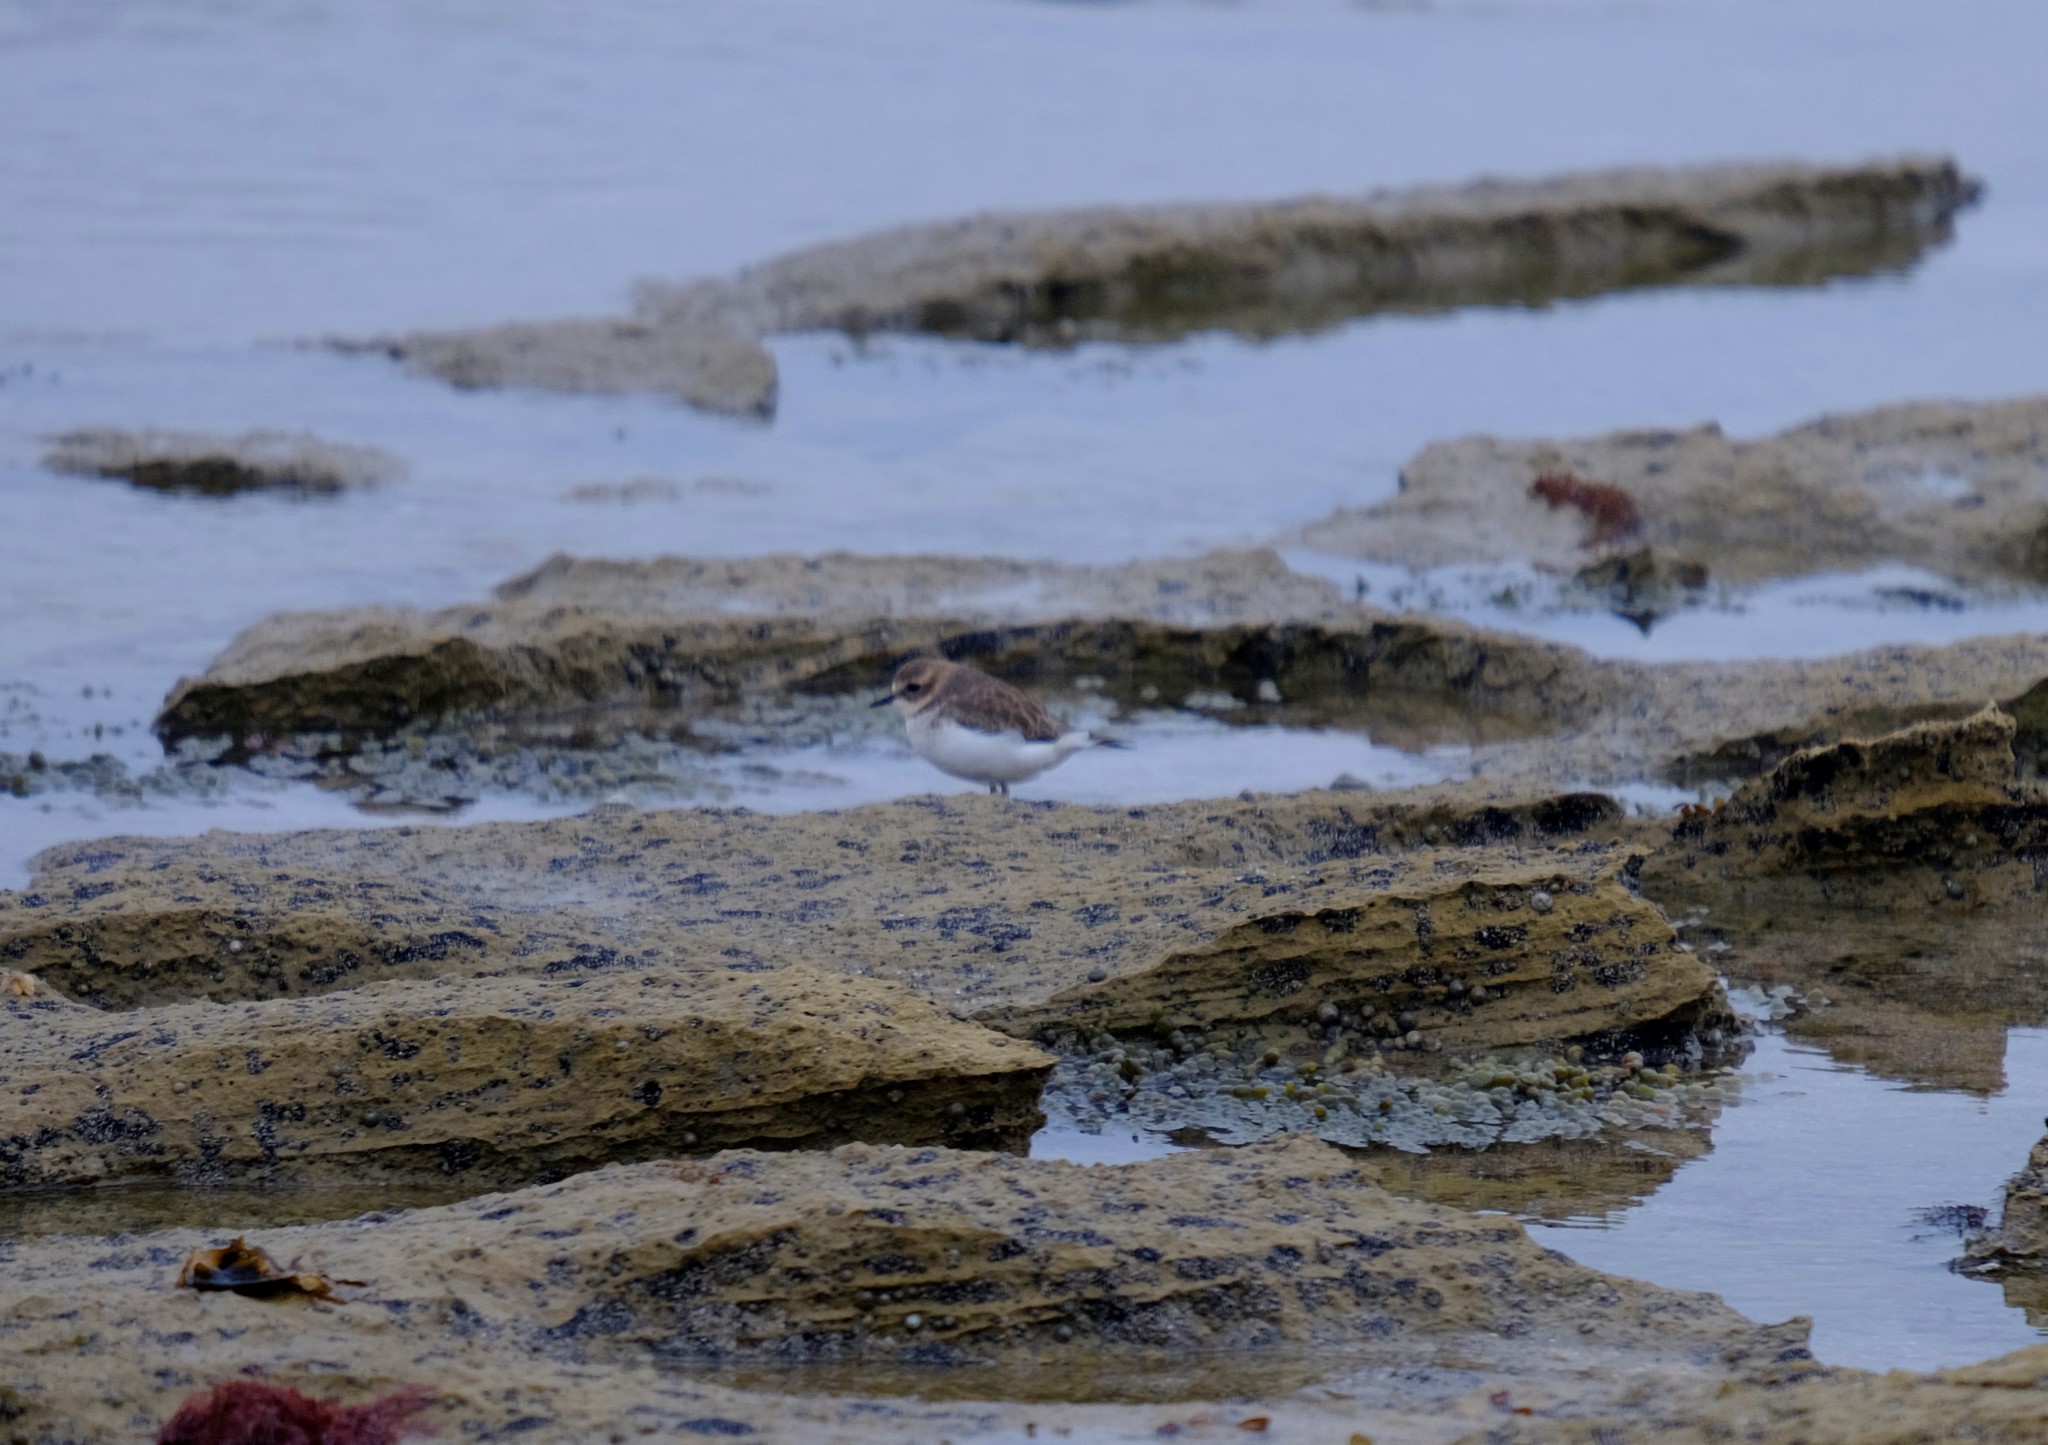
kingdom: Animalia
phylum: Chordata
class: Aves
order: Charadriiformes
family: Charadriidae
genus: Anarhynchus
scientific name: Anarhynchus
